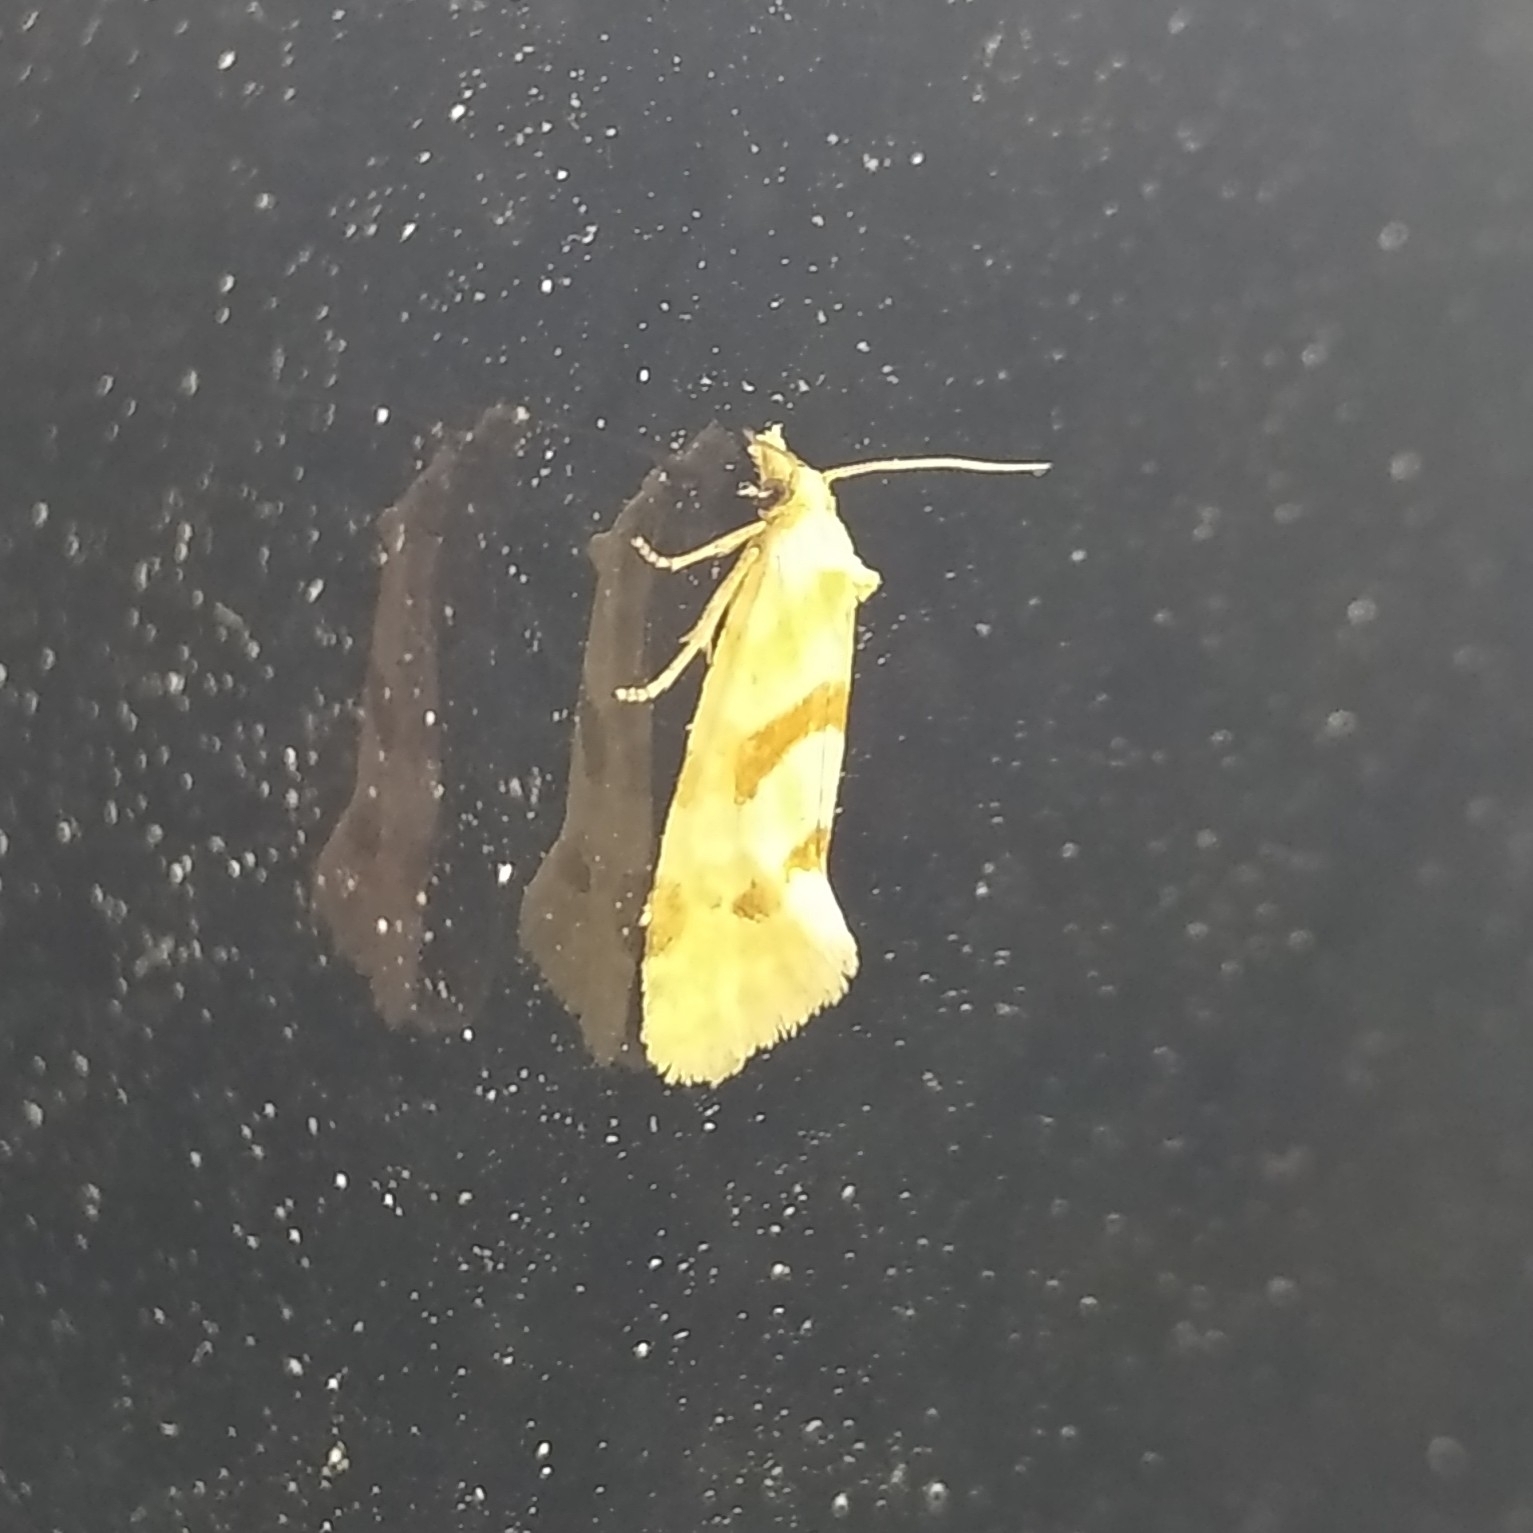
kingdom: Animalia
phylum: Arthropoda
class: Insecta
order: Lepidoptera
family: Tortricidae
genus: Aethes
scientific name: Aethes smeathmanniana
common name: Yarrow conch
